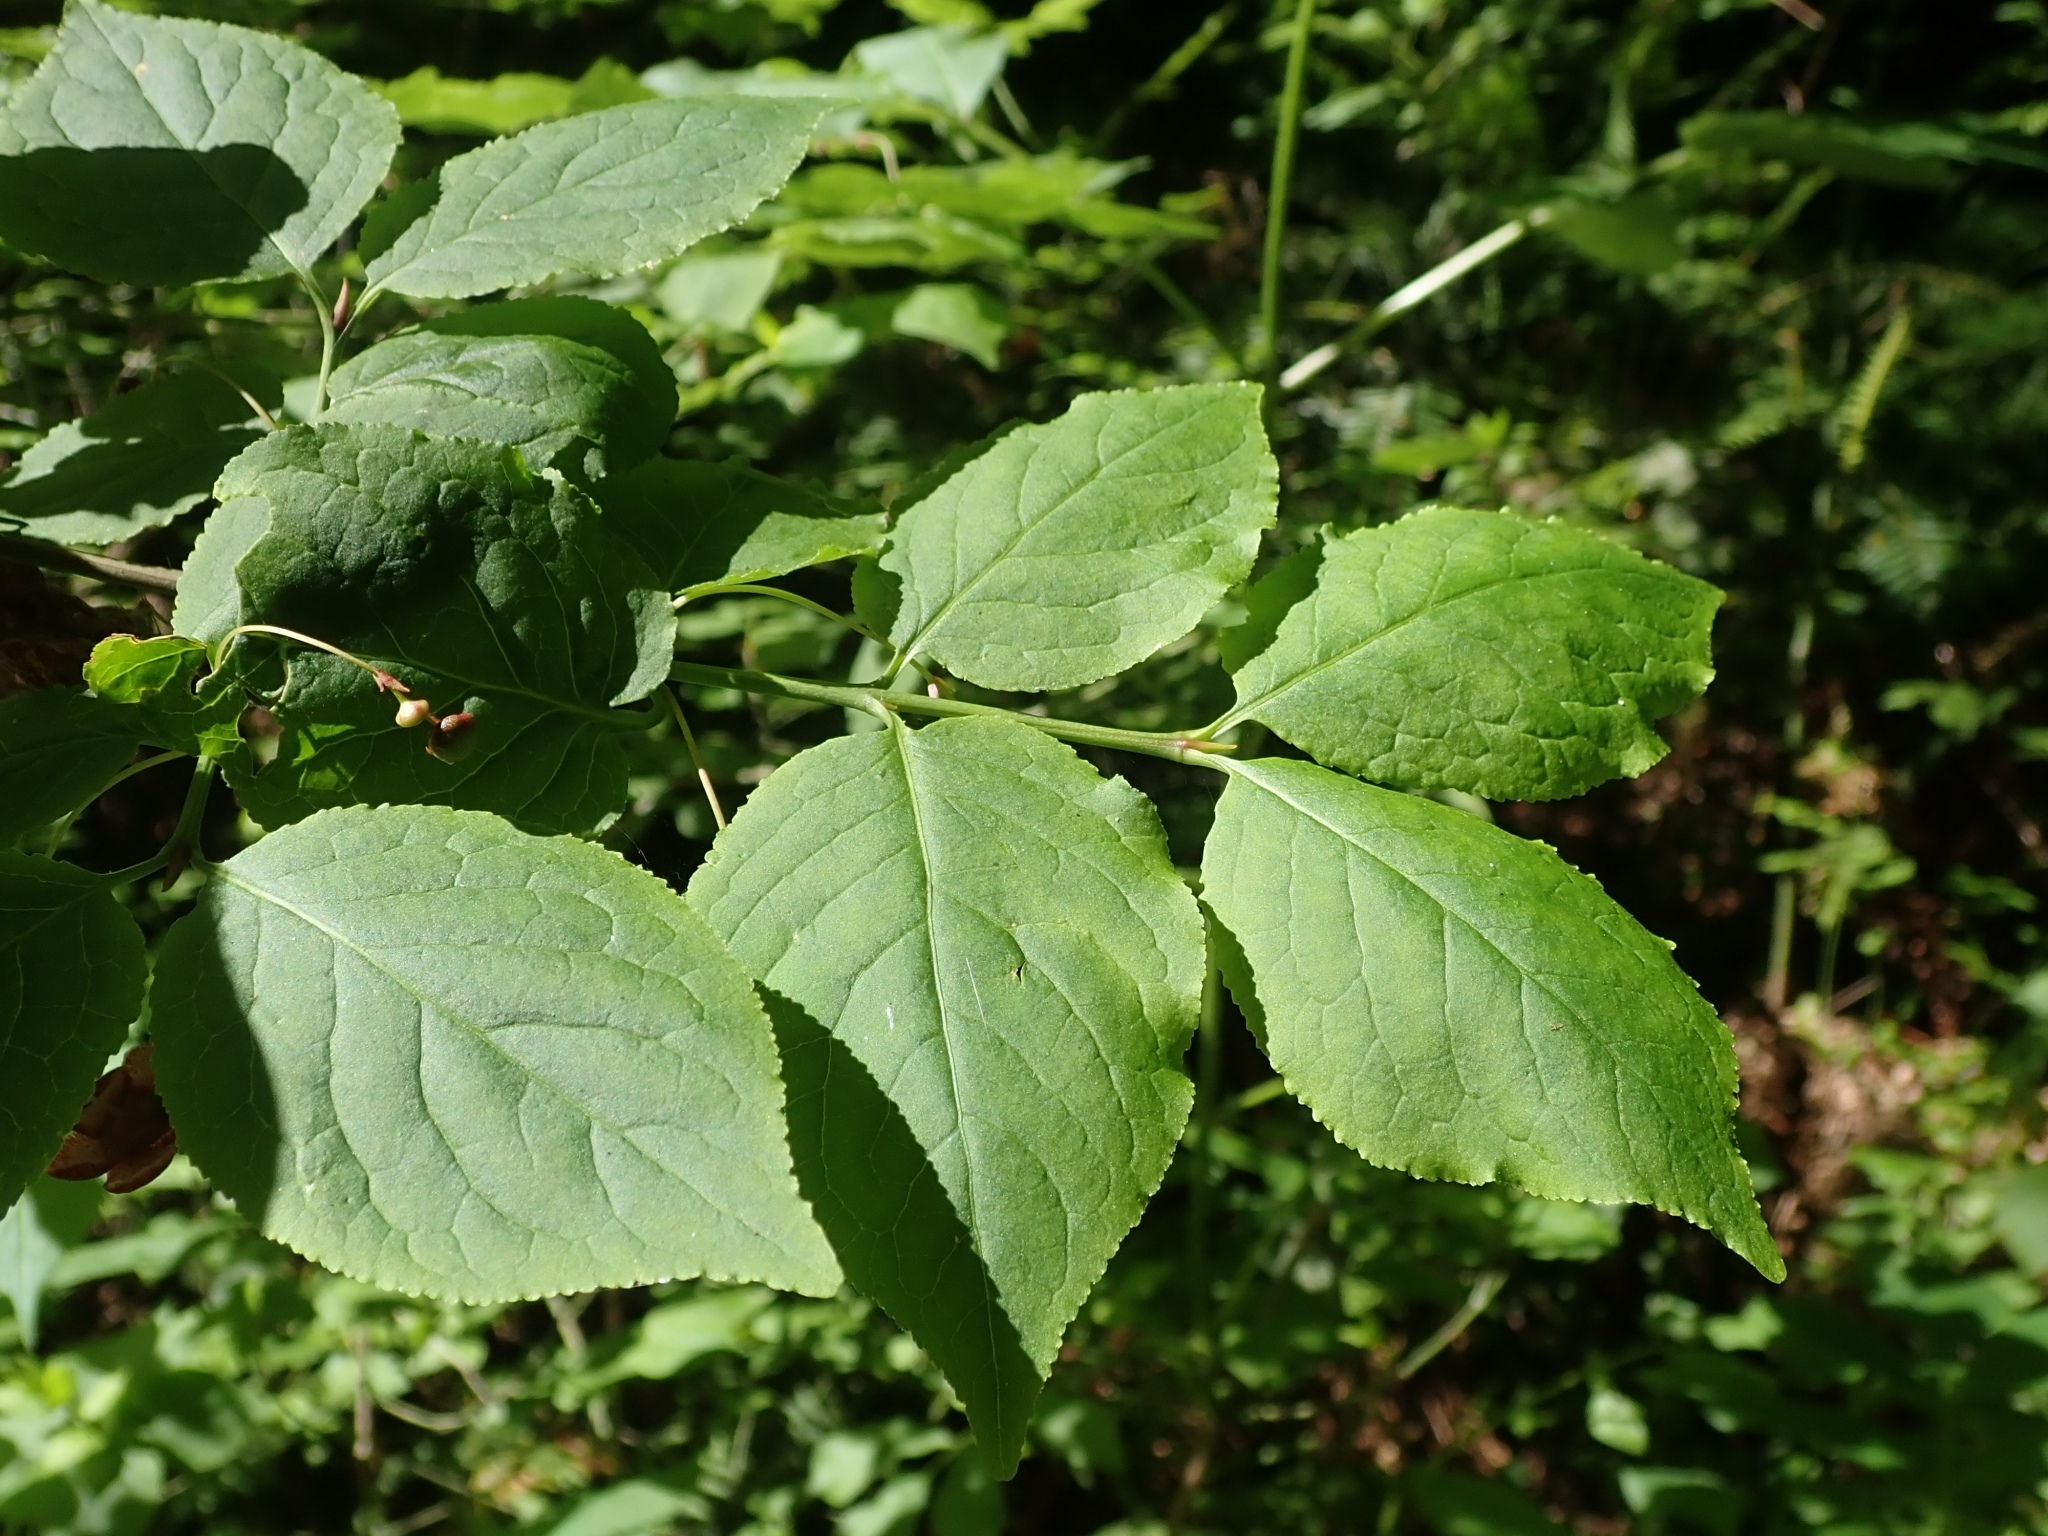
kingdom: Plantae
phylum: Tracheophyta
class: Magnoliopsida
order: Celastrales
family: Celastraceae
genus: Euonymus
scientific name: Euonymus occidentalis
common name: Western burningbush
